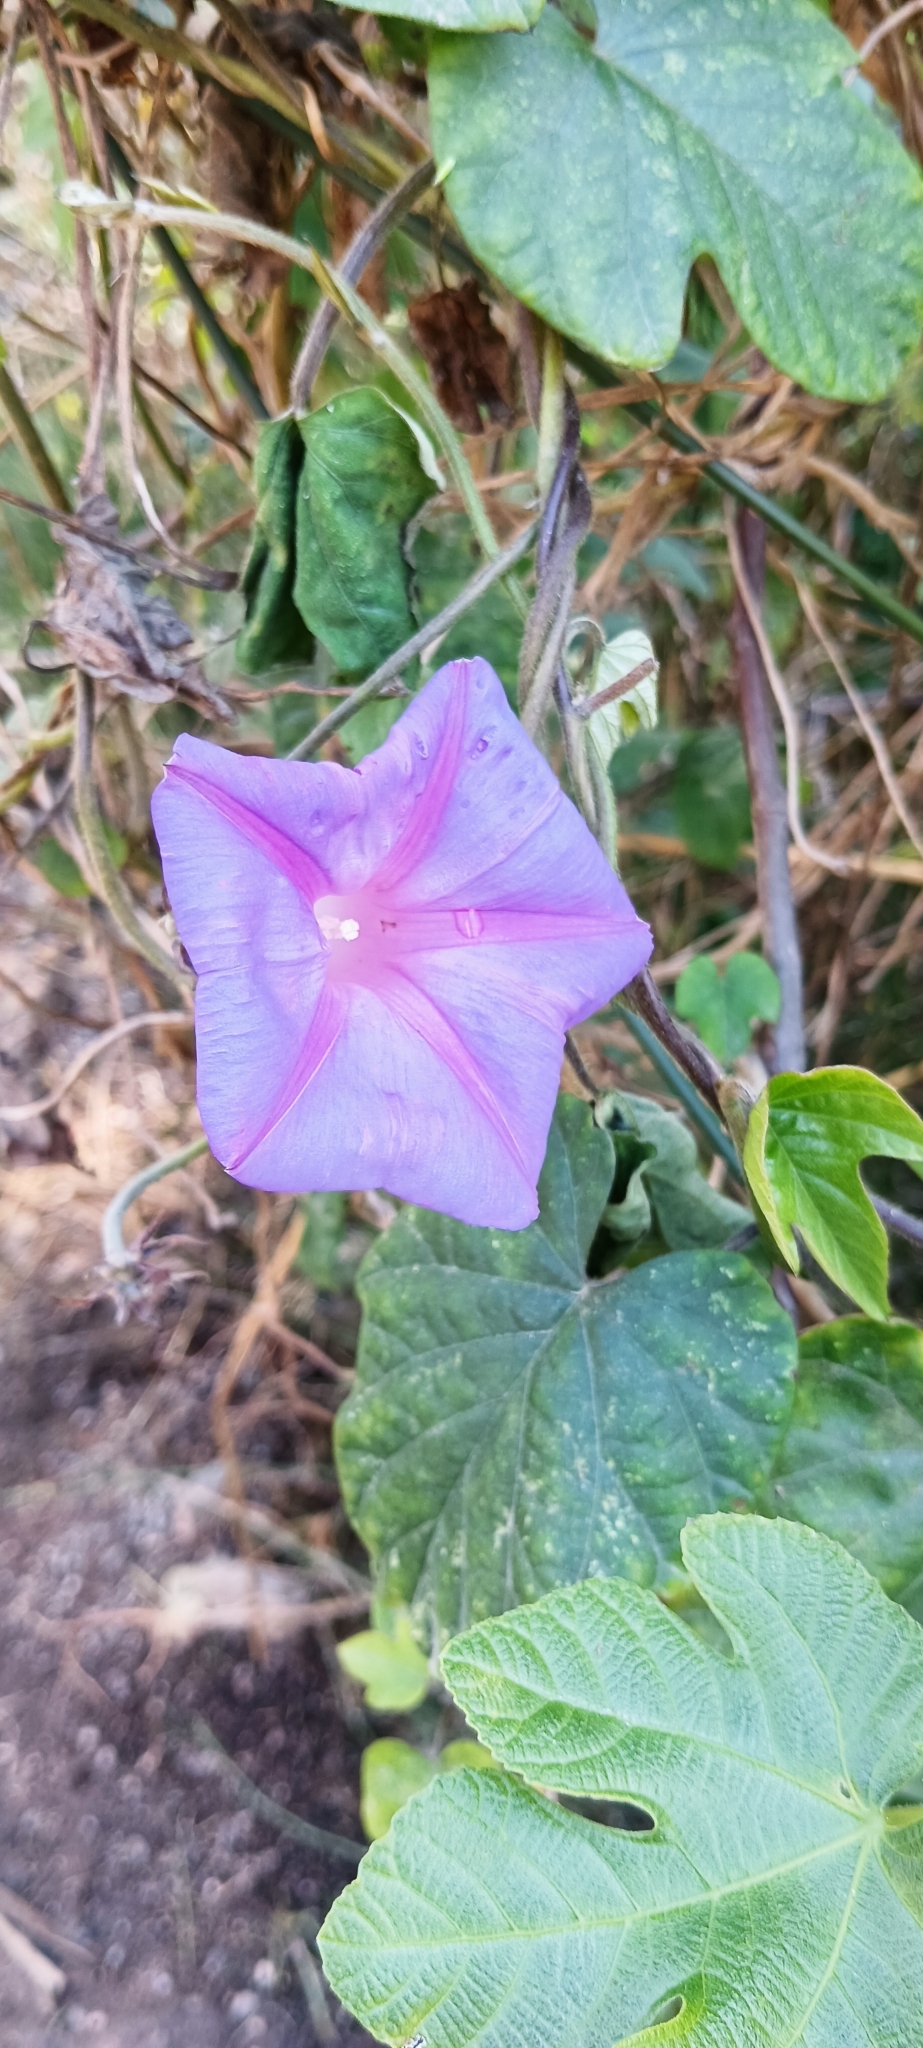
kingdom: Plantae
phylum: Tracheophyta
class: Magnoliopsida
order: Solanales
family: Convolvulaceae
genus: Ipomoea
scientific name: Ipomoea indica
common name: Blue dawnflower
